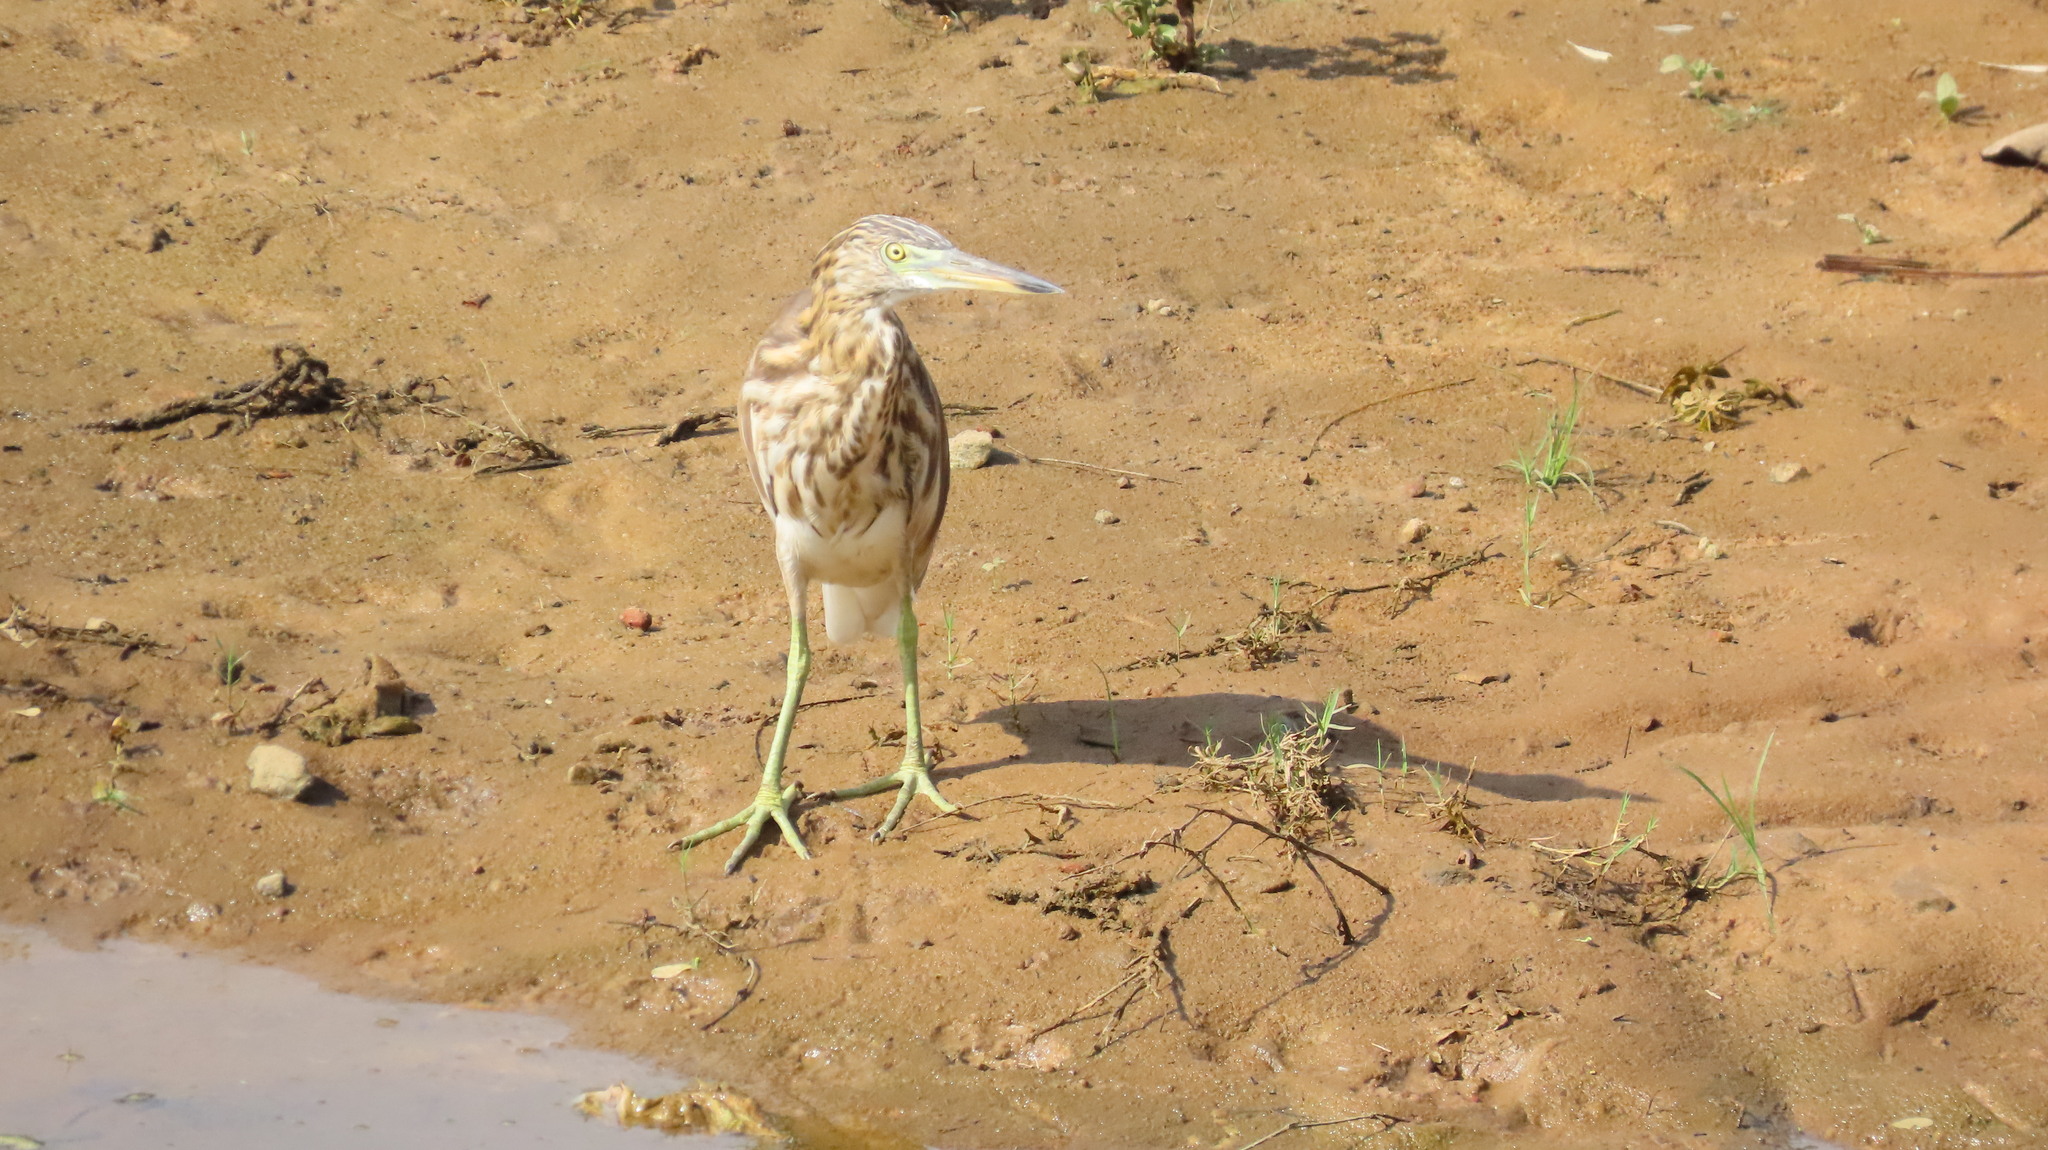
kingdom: Animalia
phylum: Chordata
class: Aves
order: Pelecaniformes
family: Ardeidae
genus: Ardeola
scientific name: Ardeola grayii
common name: Indian pond heron
